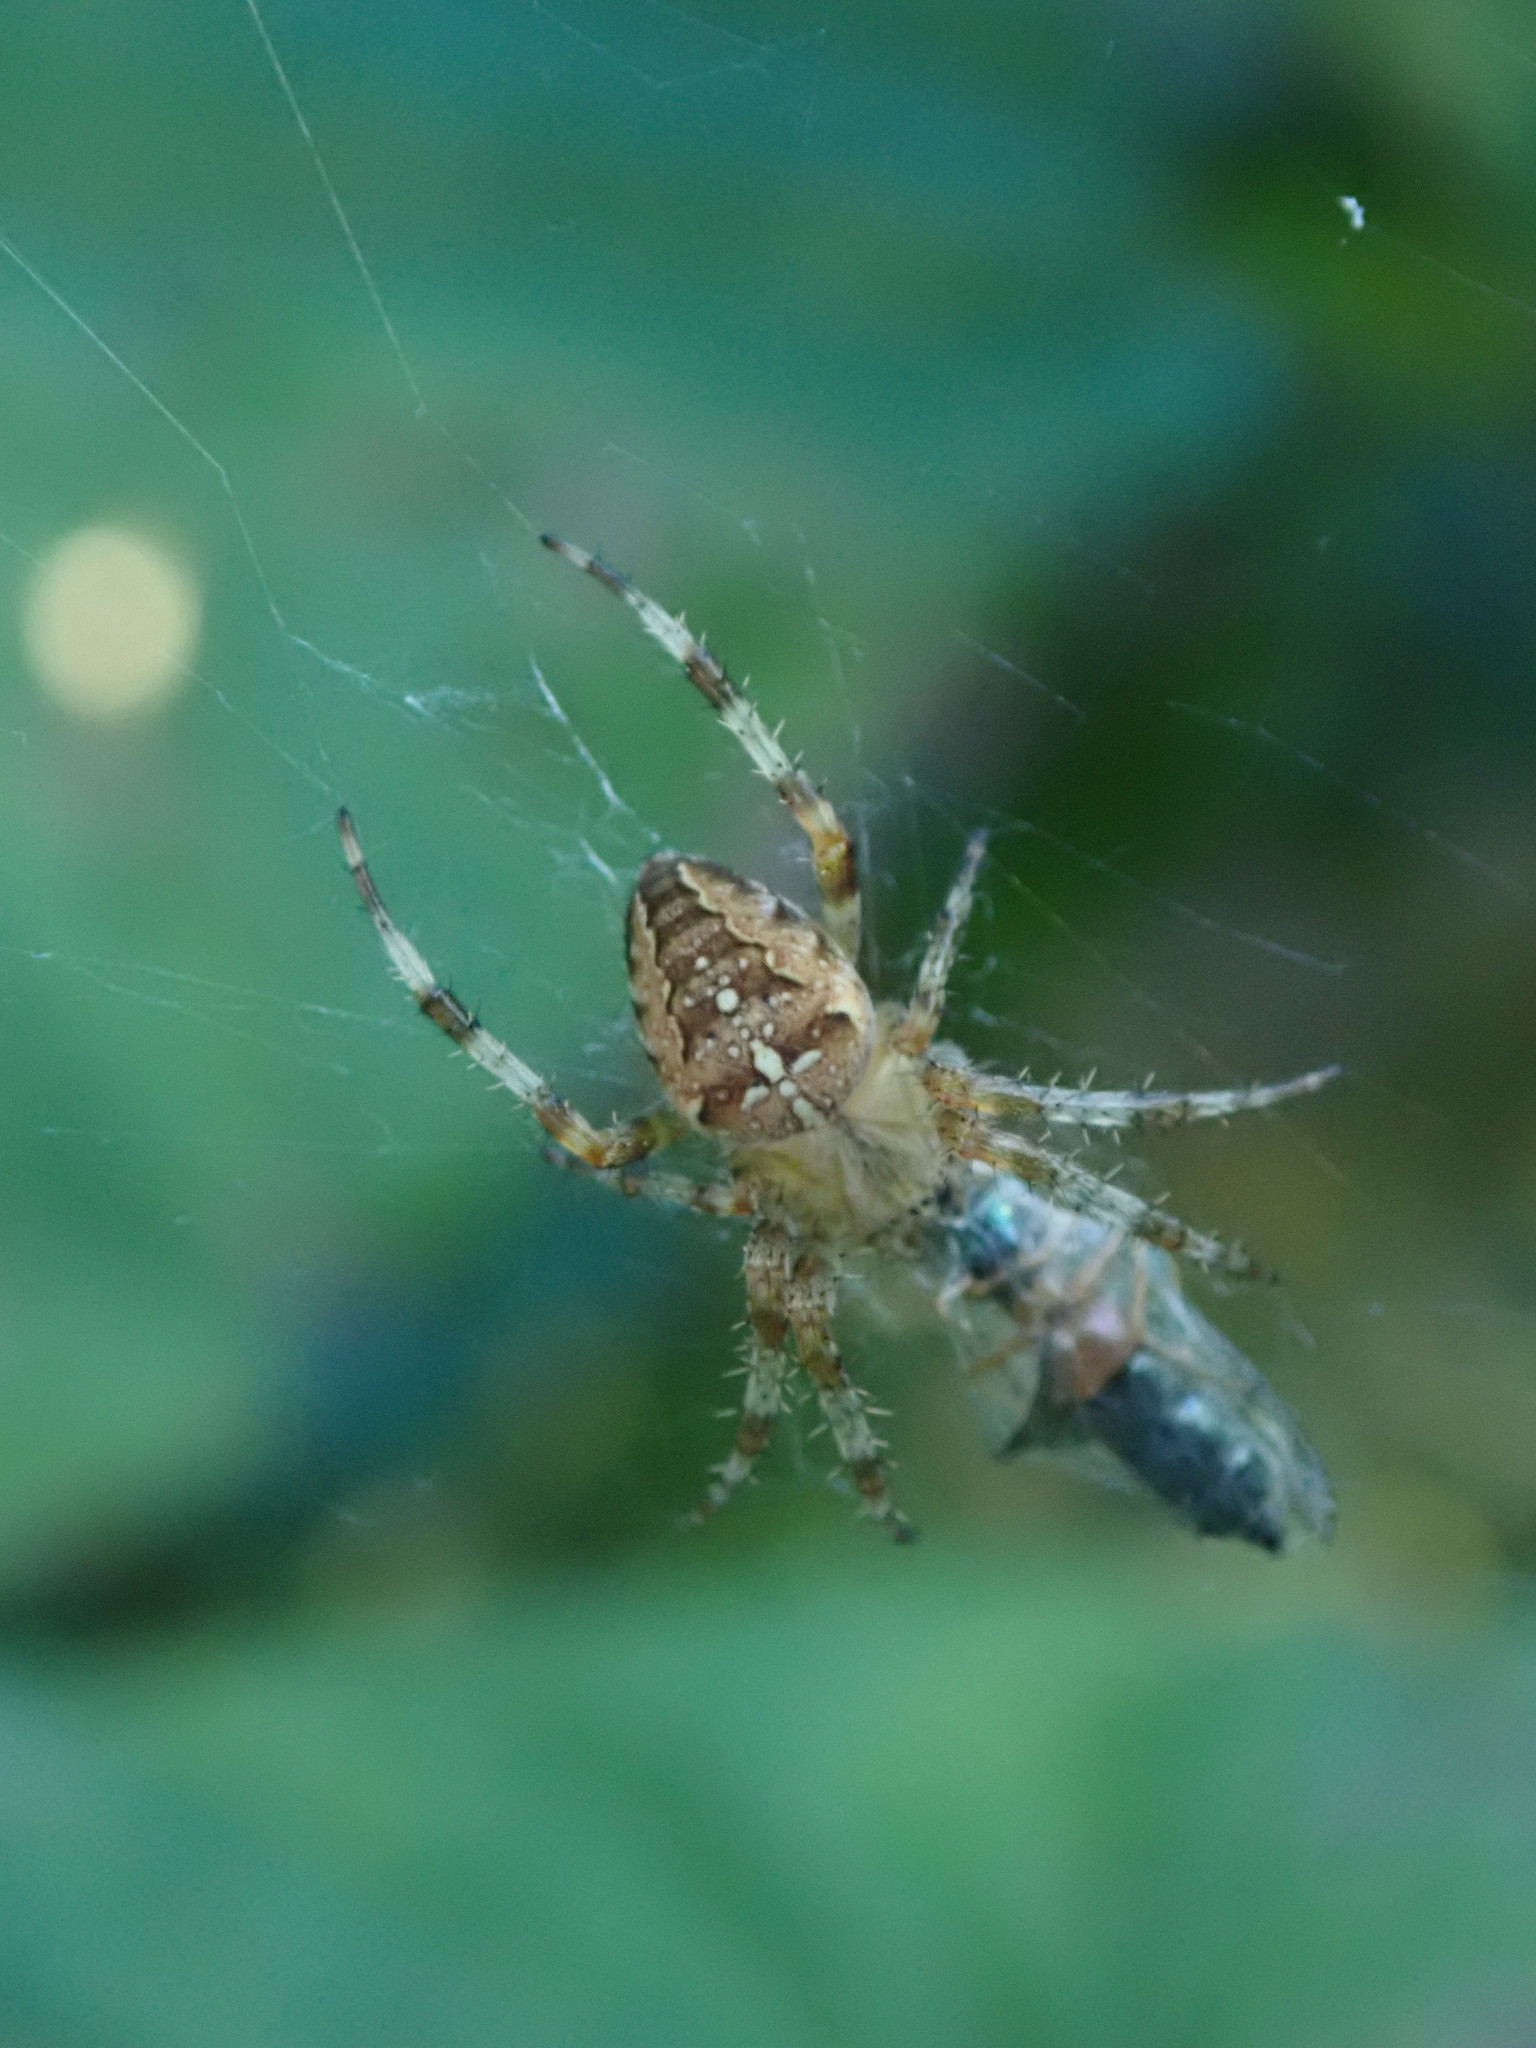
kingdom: Animalia
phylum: Arthropoda
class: Arachnida
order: Araneae
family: Araneidae
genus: Araneus
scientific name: Araneus diadematus
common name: Cross orbweaver
